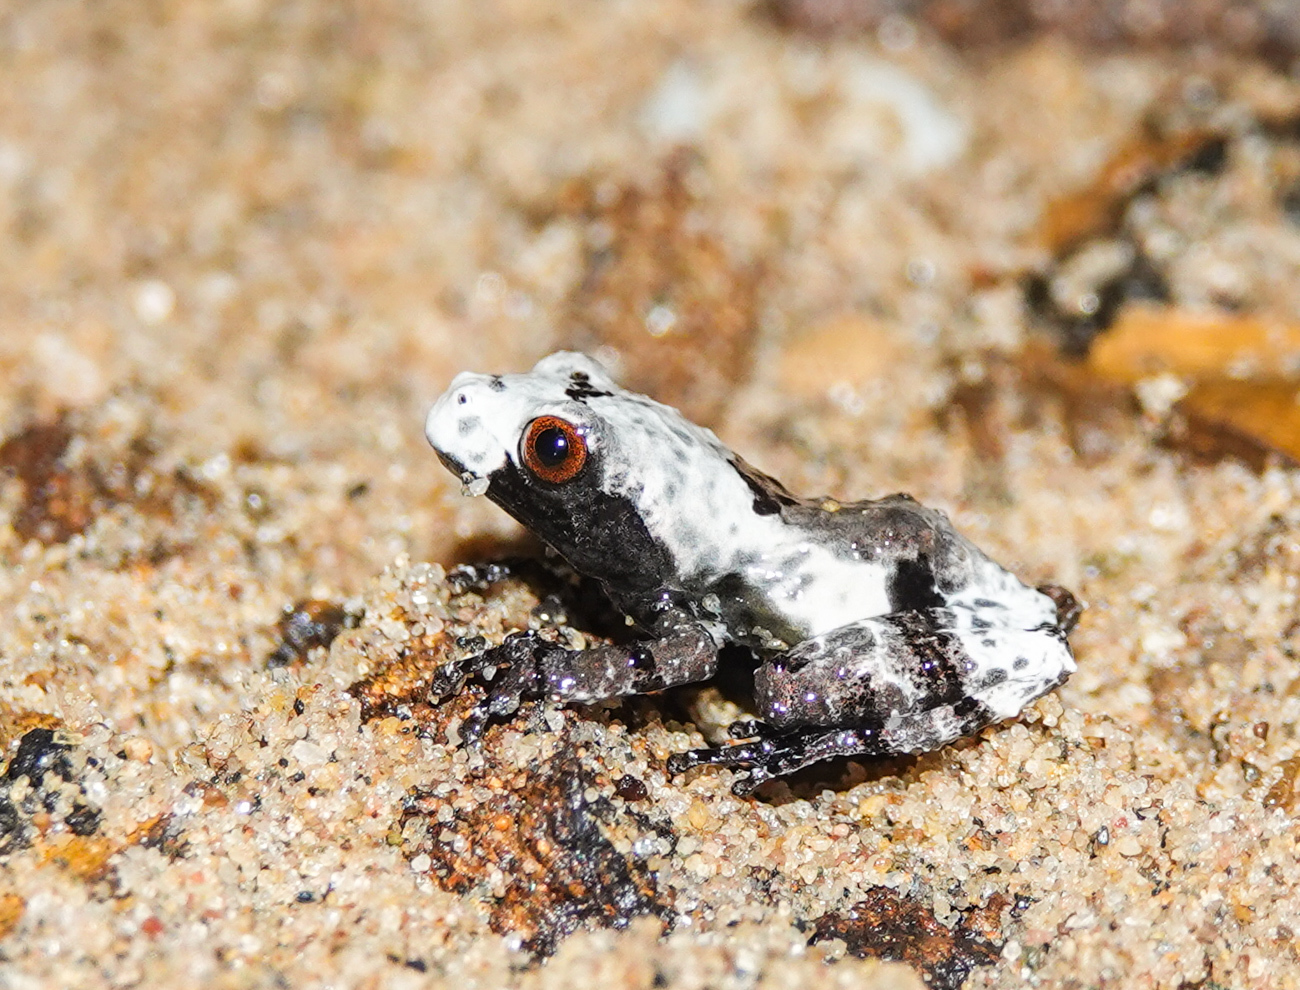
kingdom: Animalia
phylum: Chordata
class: Amphibia
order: Anura
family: Rhacophoridae
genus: Theloderma
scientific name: Theloderma baibungense
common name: Baibung small treefrog
